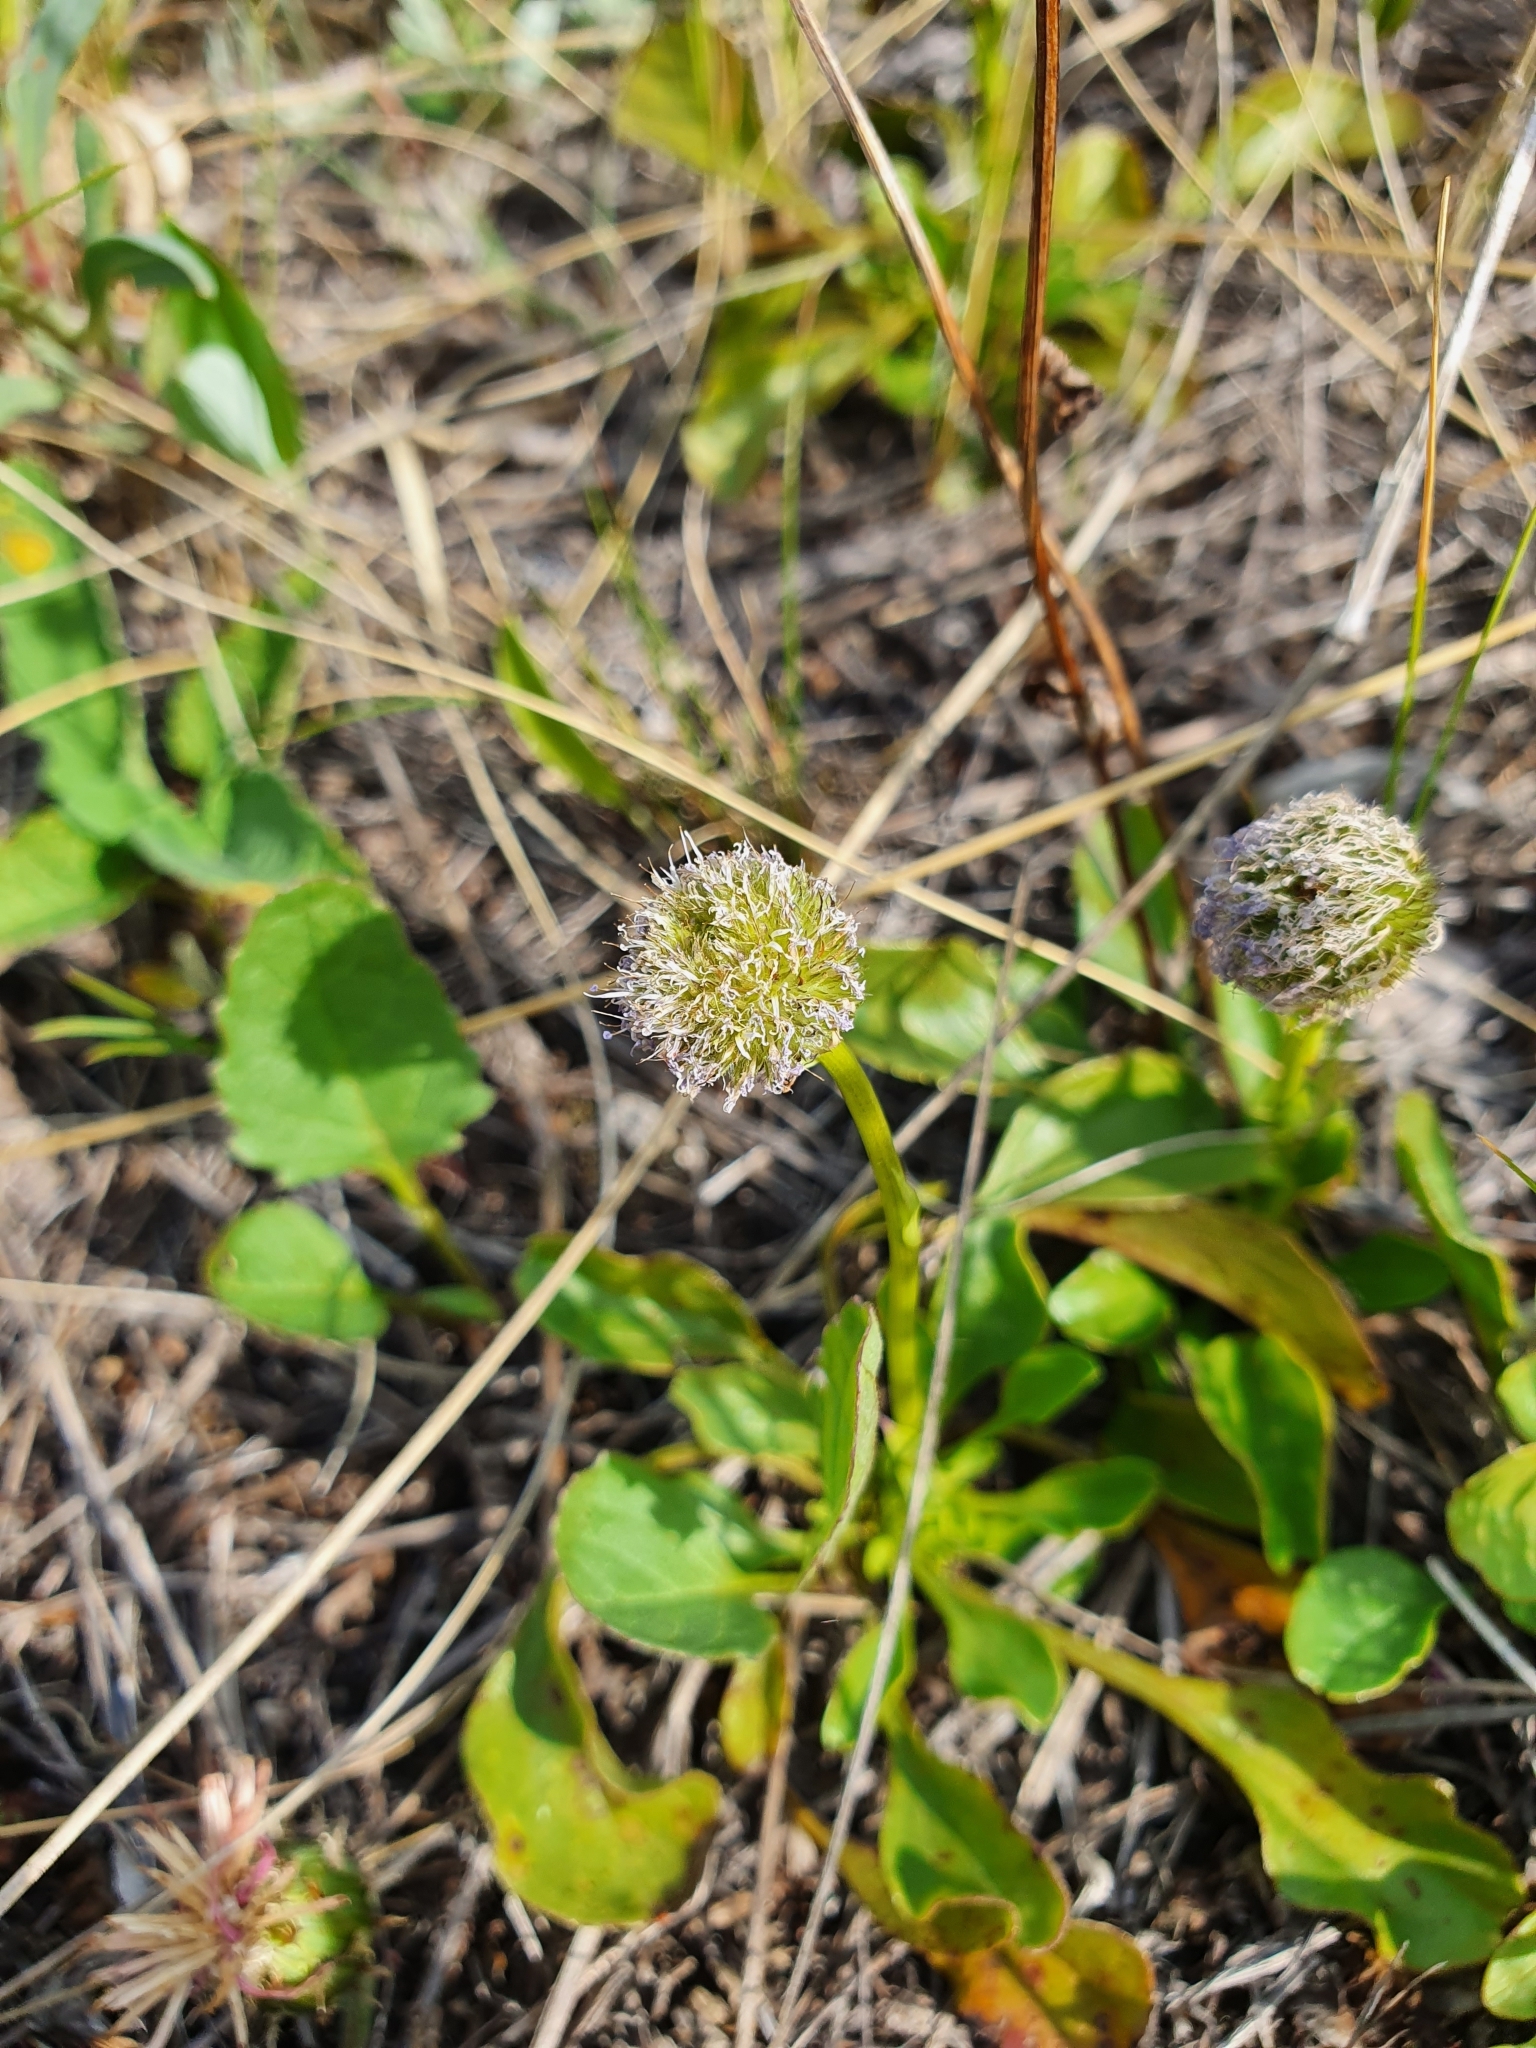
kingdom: Plantae
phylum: Tracheophyta
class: Magnoliopsida
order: Lamiales
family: Plantaginaceae
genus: Globularia
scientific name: Globularia bisnagarica
